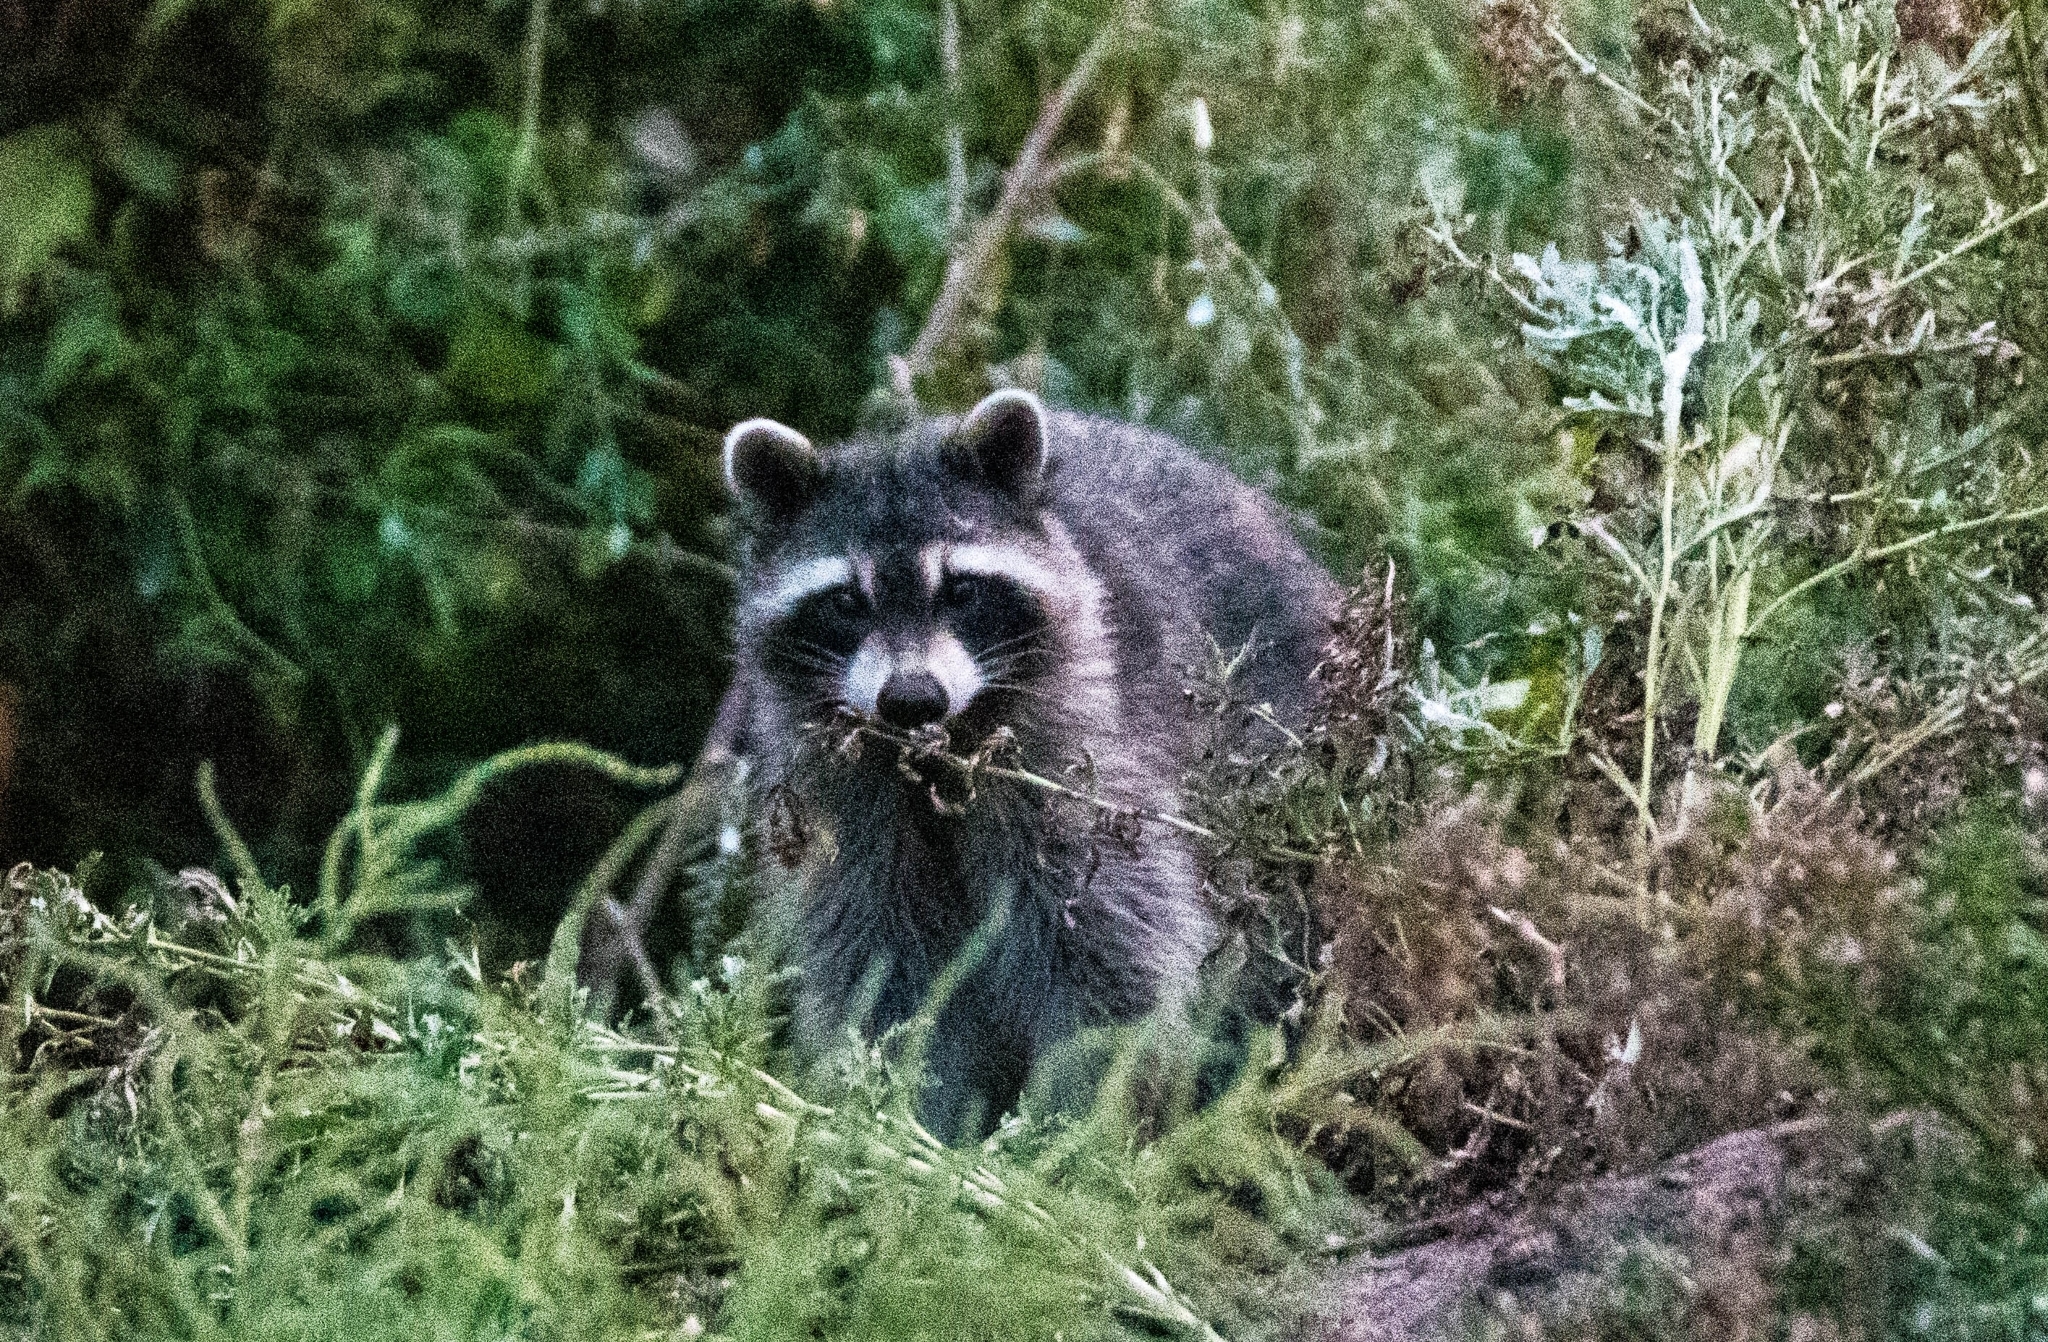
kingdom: Animalia
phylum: Chordata
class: Mammalia
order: Carnivora
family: Procyonidae
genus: Procyon
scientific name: Procyon lotor
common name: Raccoon
